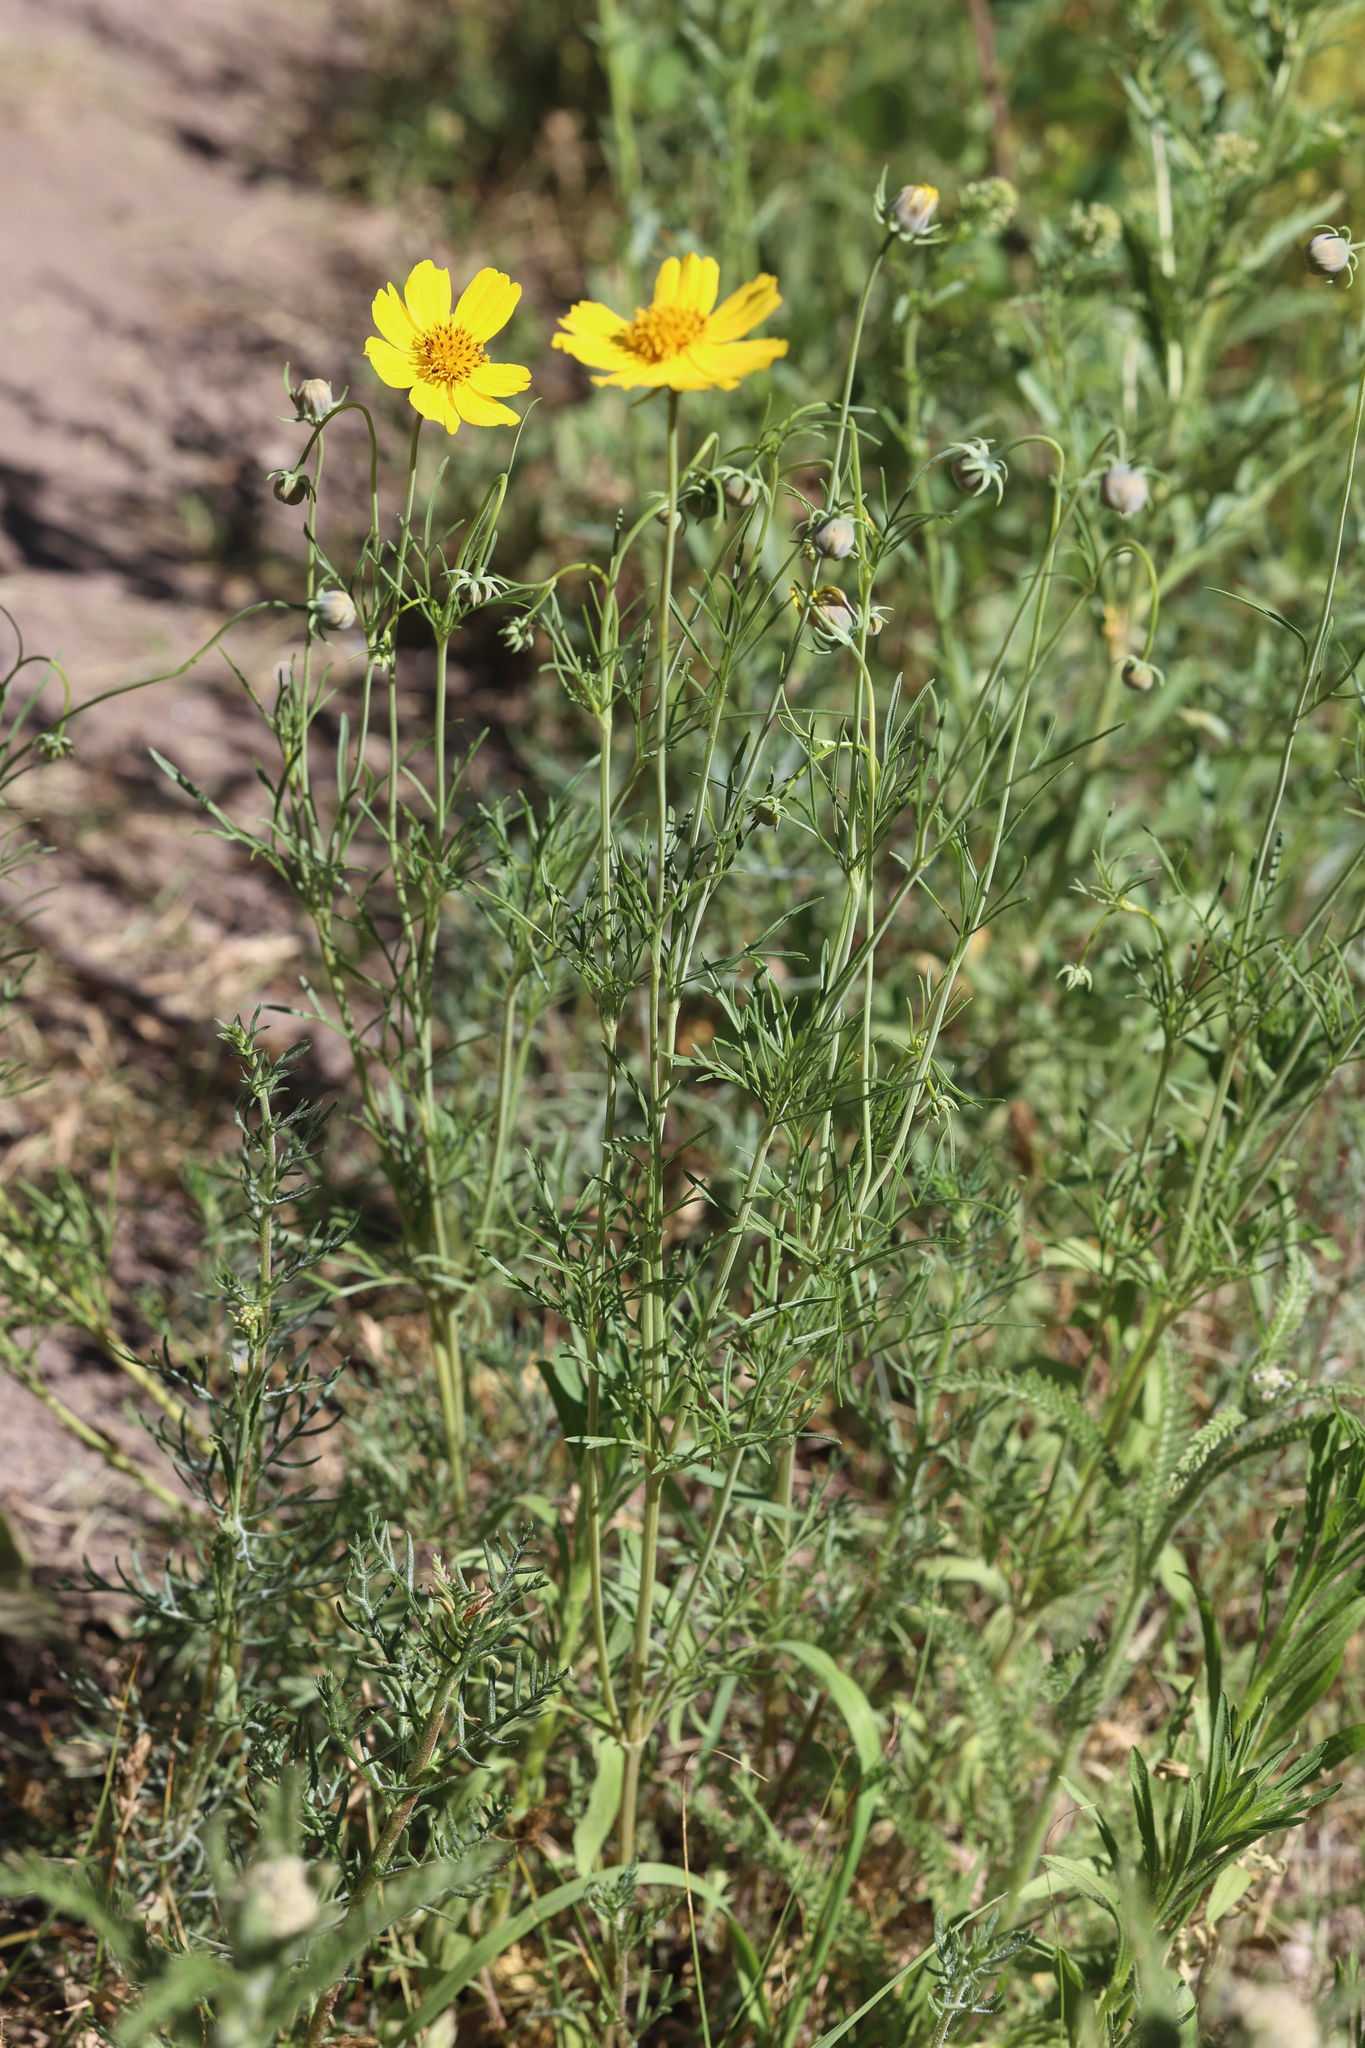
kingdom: Plantae
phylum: Tracheophyta
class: Magnoliopsida
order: Asterales
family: Asteraceae
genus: Thelesperma
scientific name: Thelesperma filifolium
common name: Stiff greenthread
